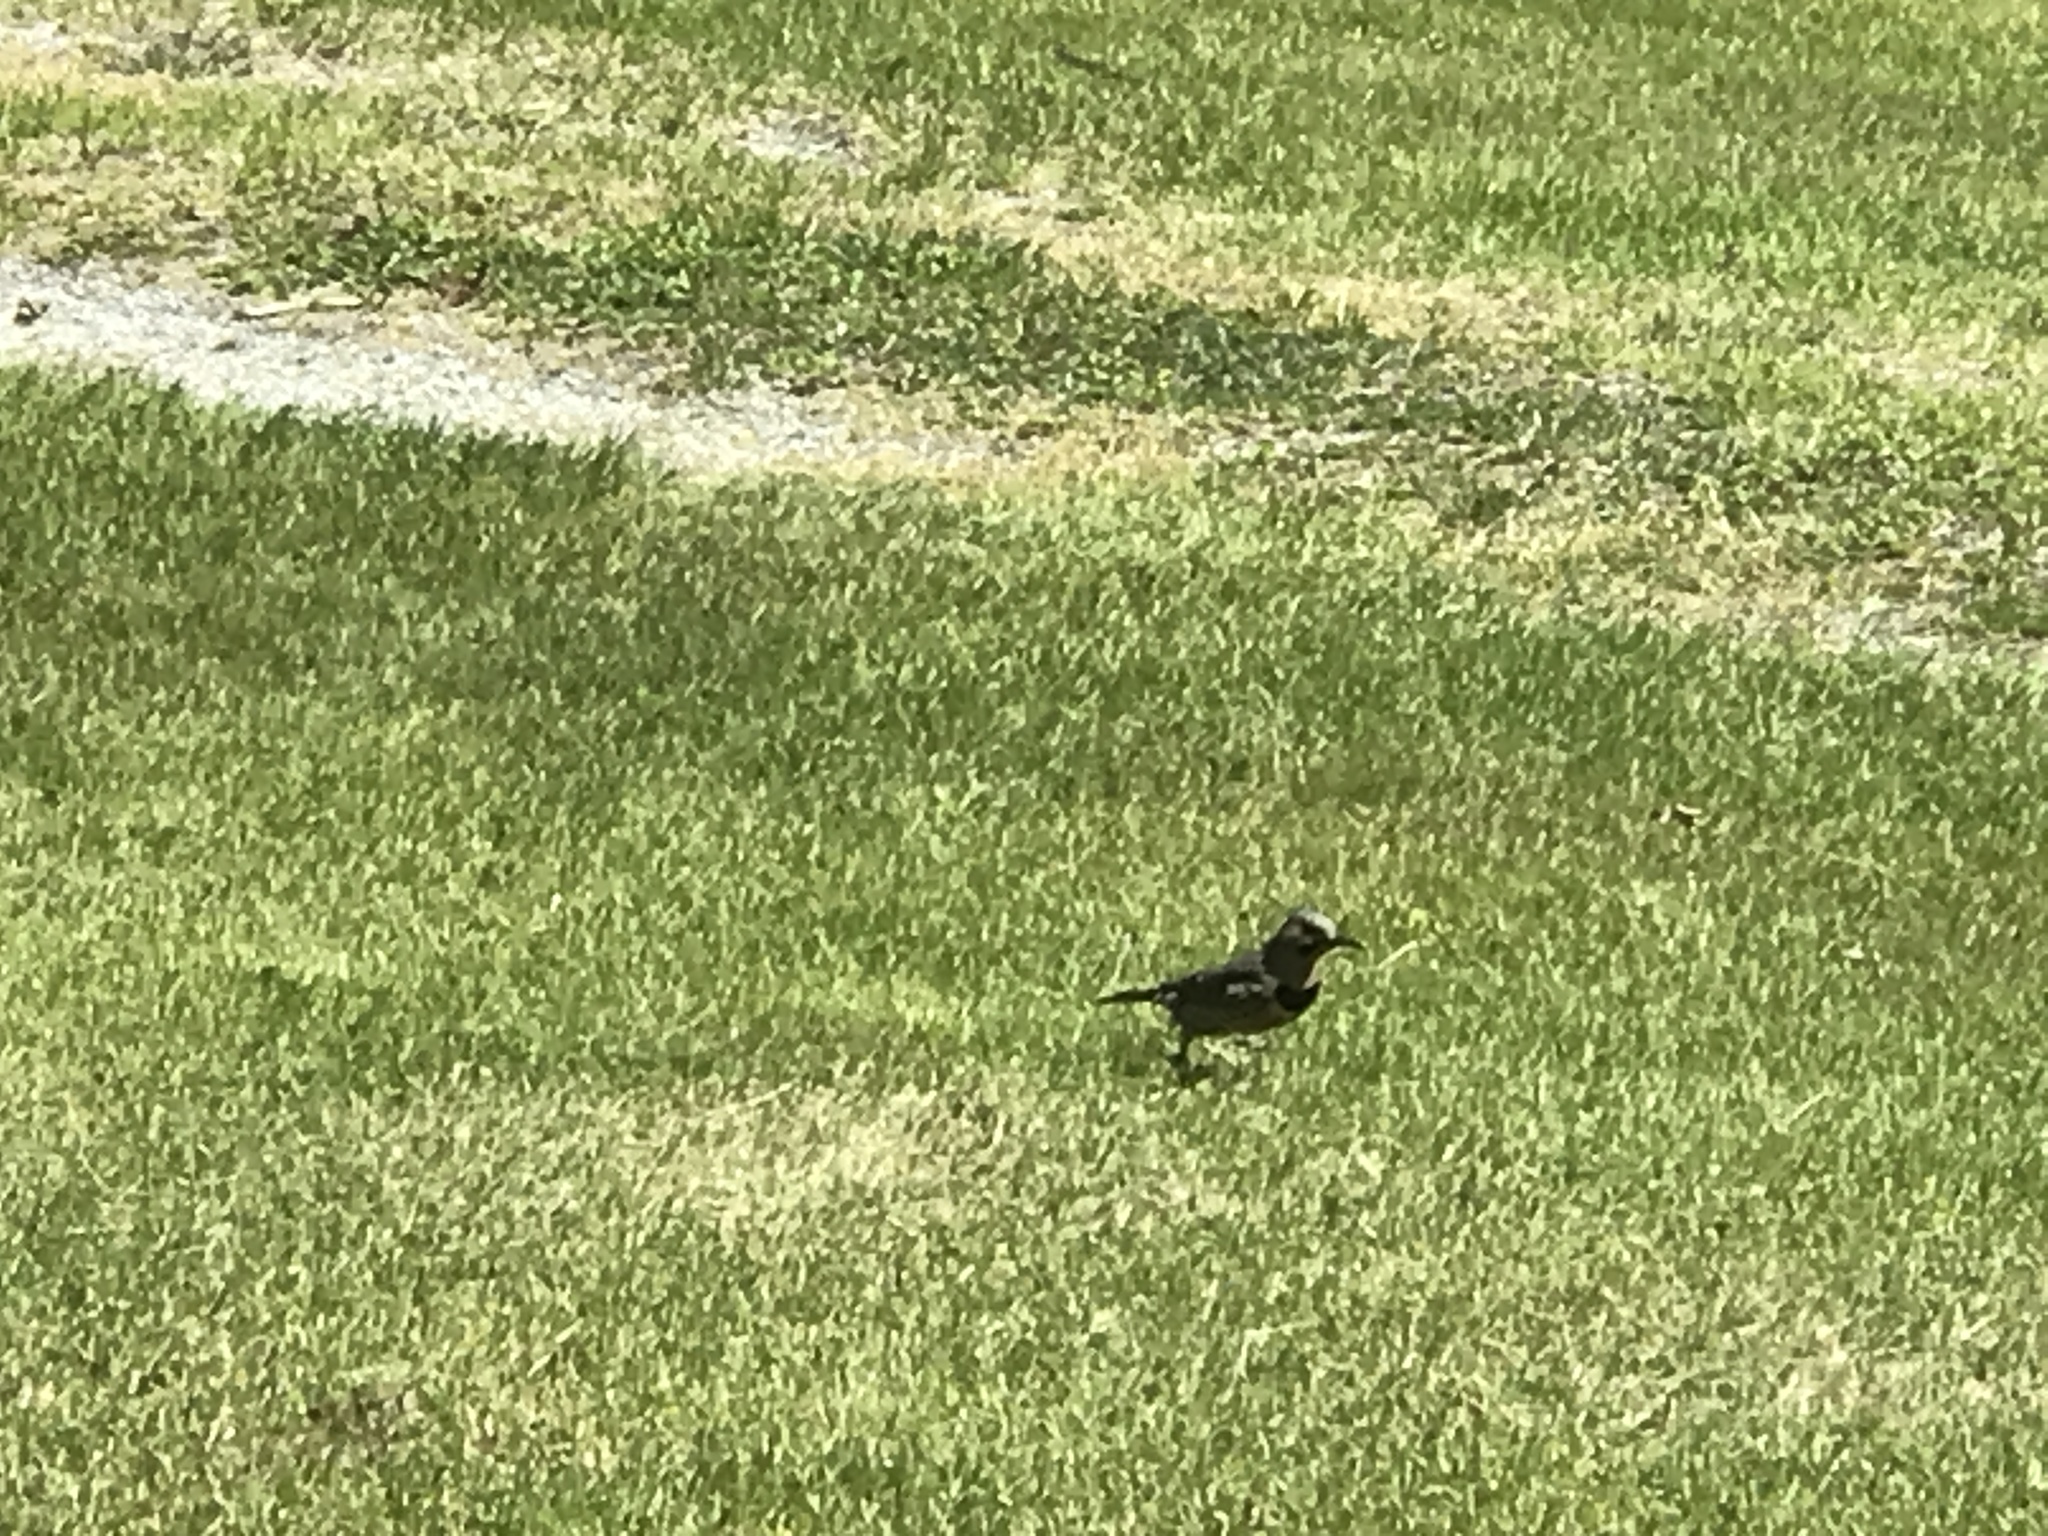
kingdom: Animalia
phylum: Chordata
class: Aves
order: Piciformes
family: Picidae
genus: Colaptes
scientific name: Colaptes auratus
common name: Northern flicker
